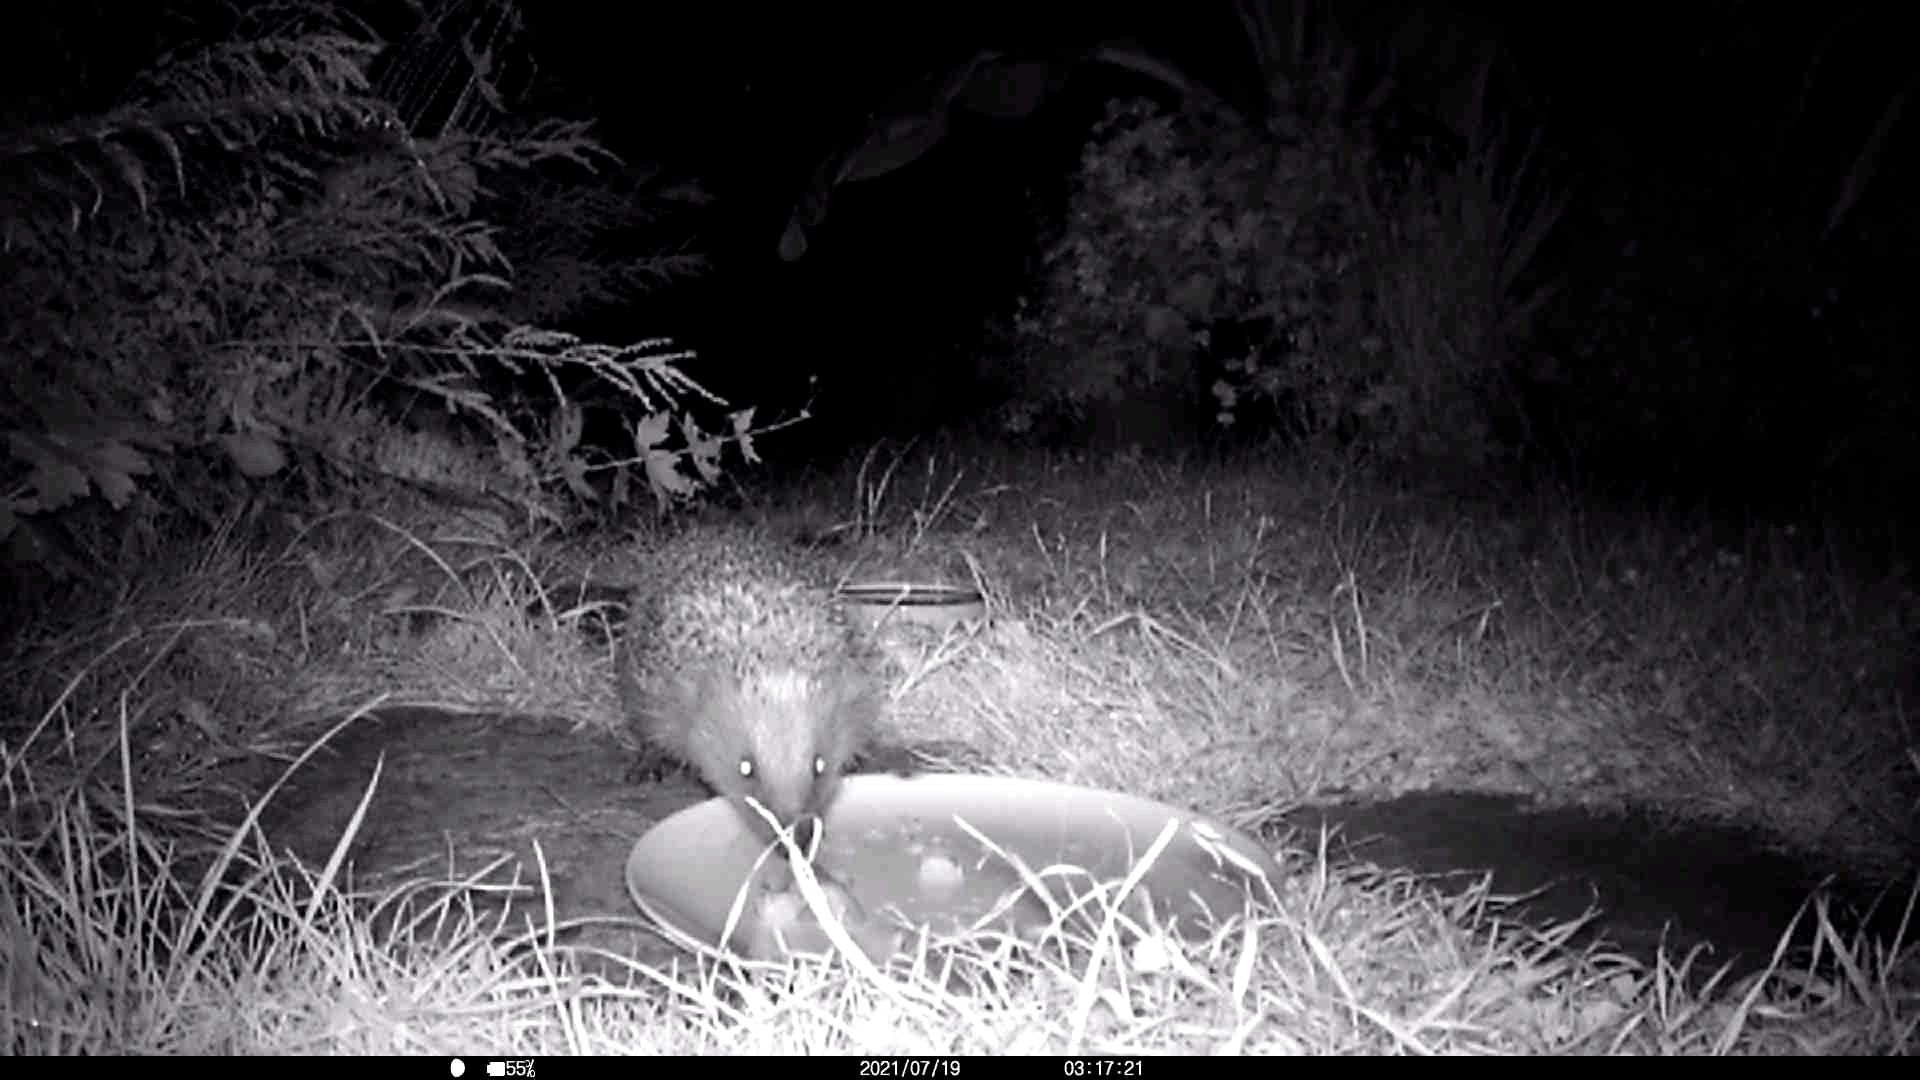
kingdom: Animalia
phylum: Chordata
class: Mammalia
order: Erinaceomorpha
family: Erinaceidae
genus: Erinaceus
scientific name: Erinaceus europaeus
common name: West european hedgehog
